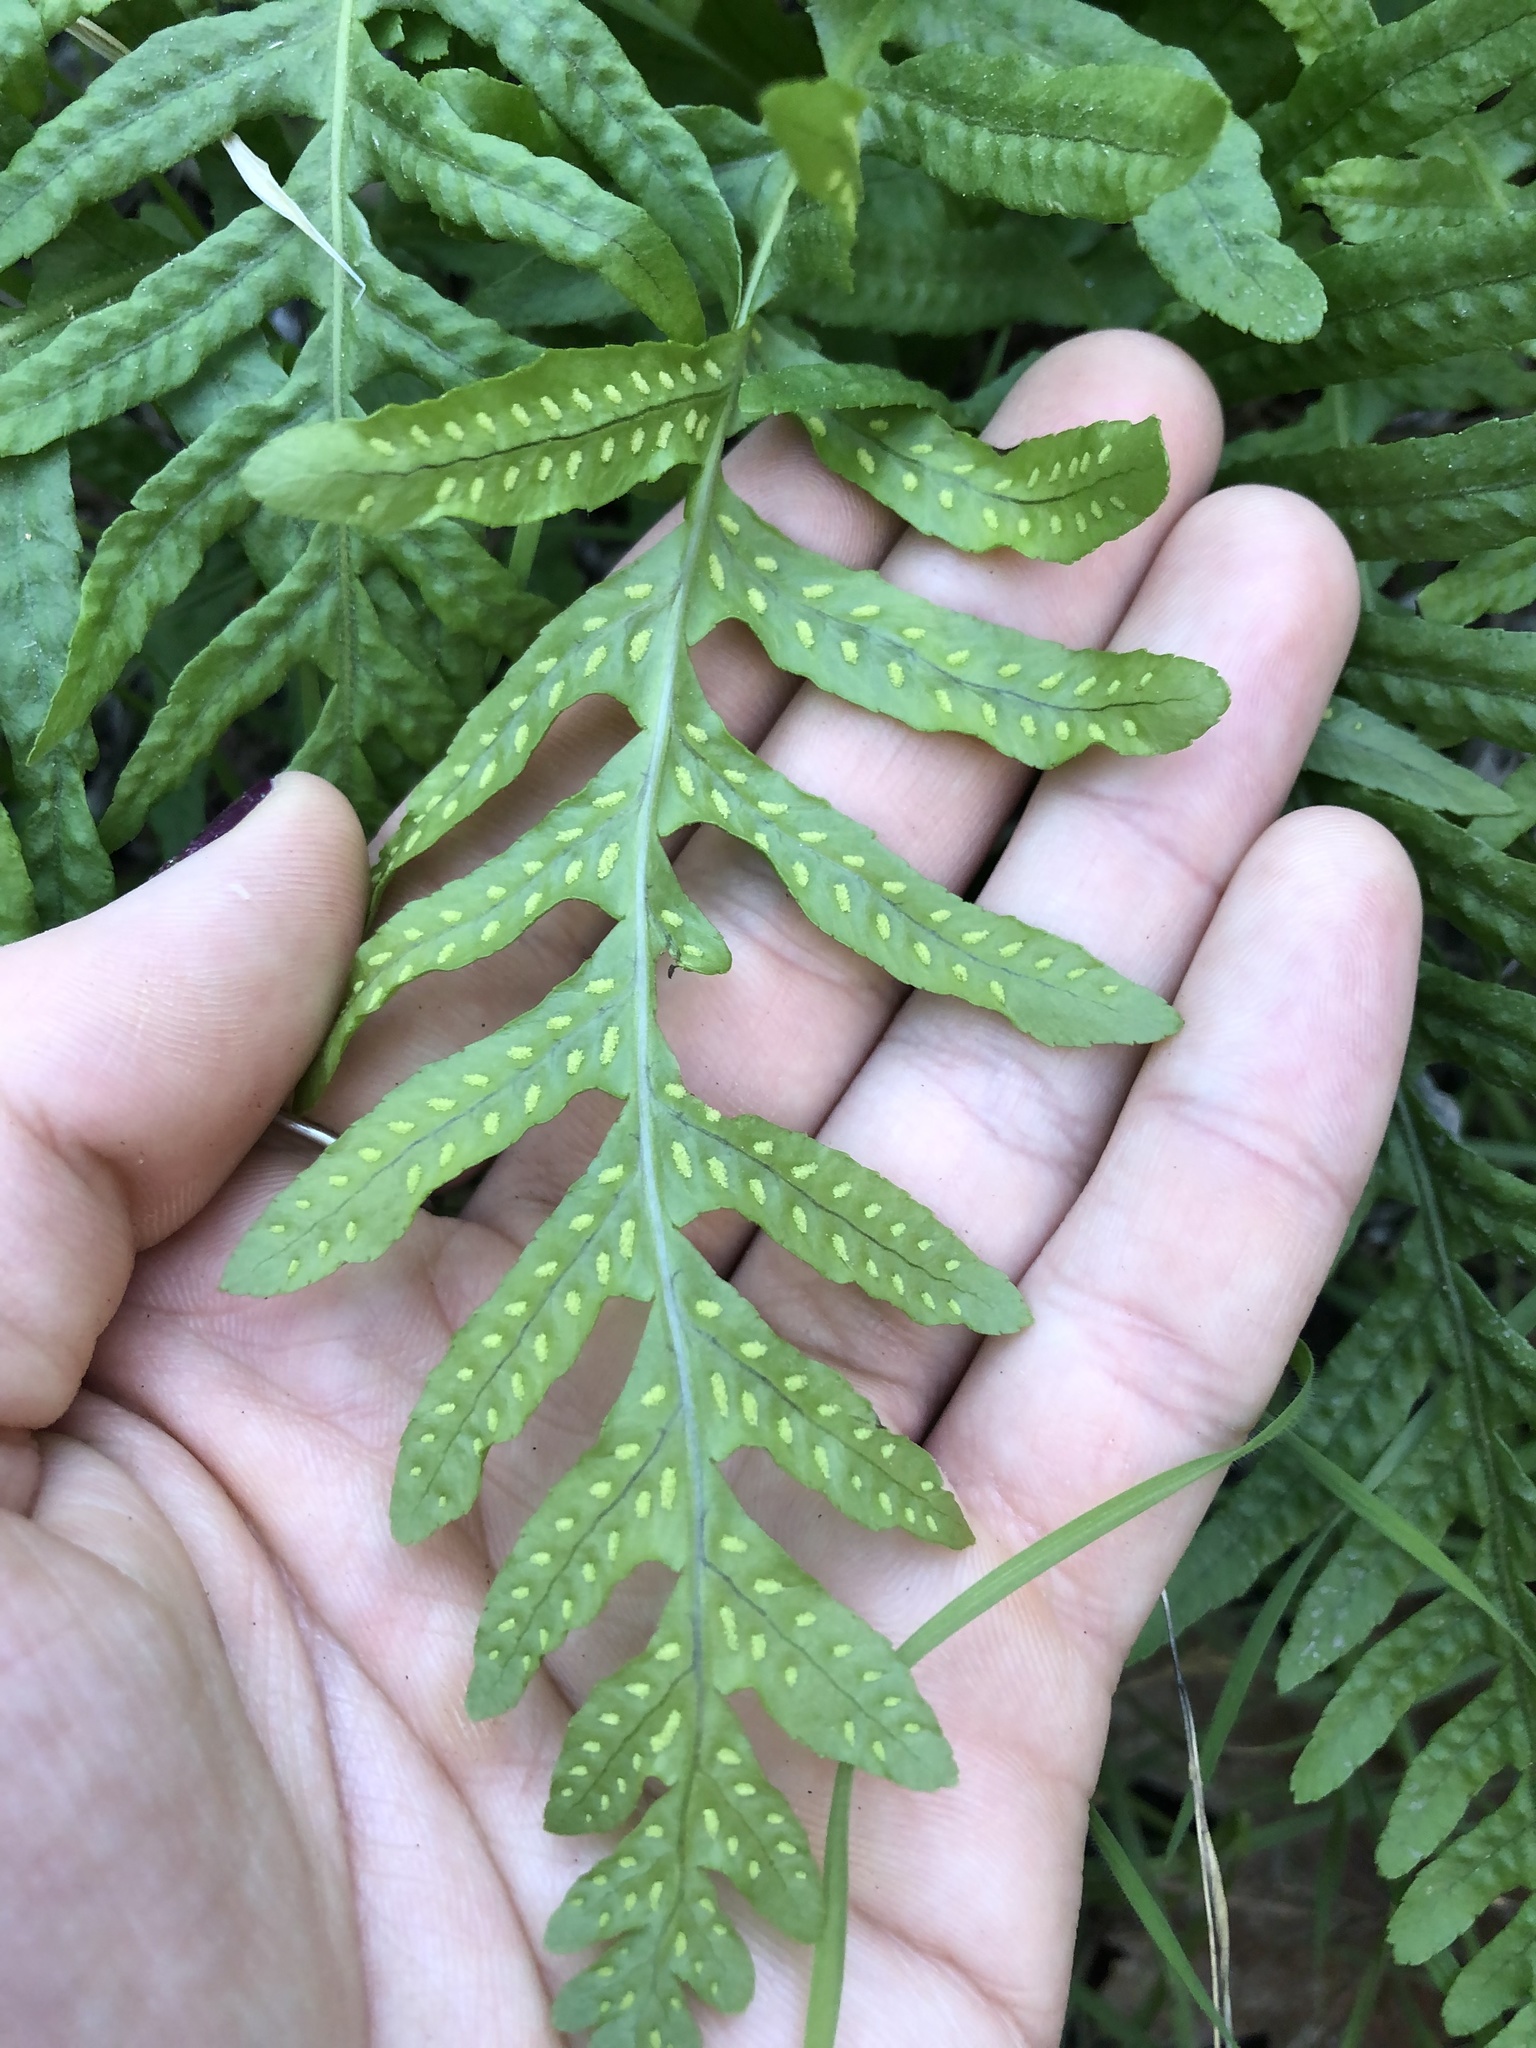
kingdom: Plantae
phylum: Tracheophyta
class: Polypodiopsida
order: Polypodiales
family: Polypodiaceae
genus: Polypodium
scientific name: Polypodium californicum
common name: California polypody
